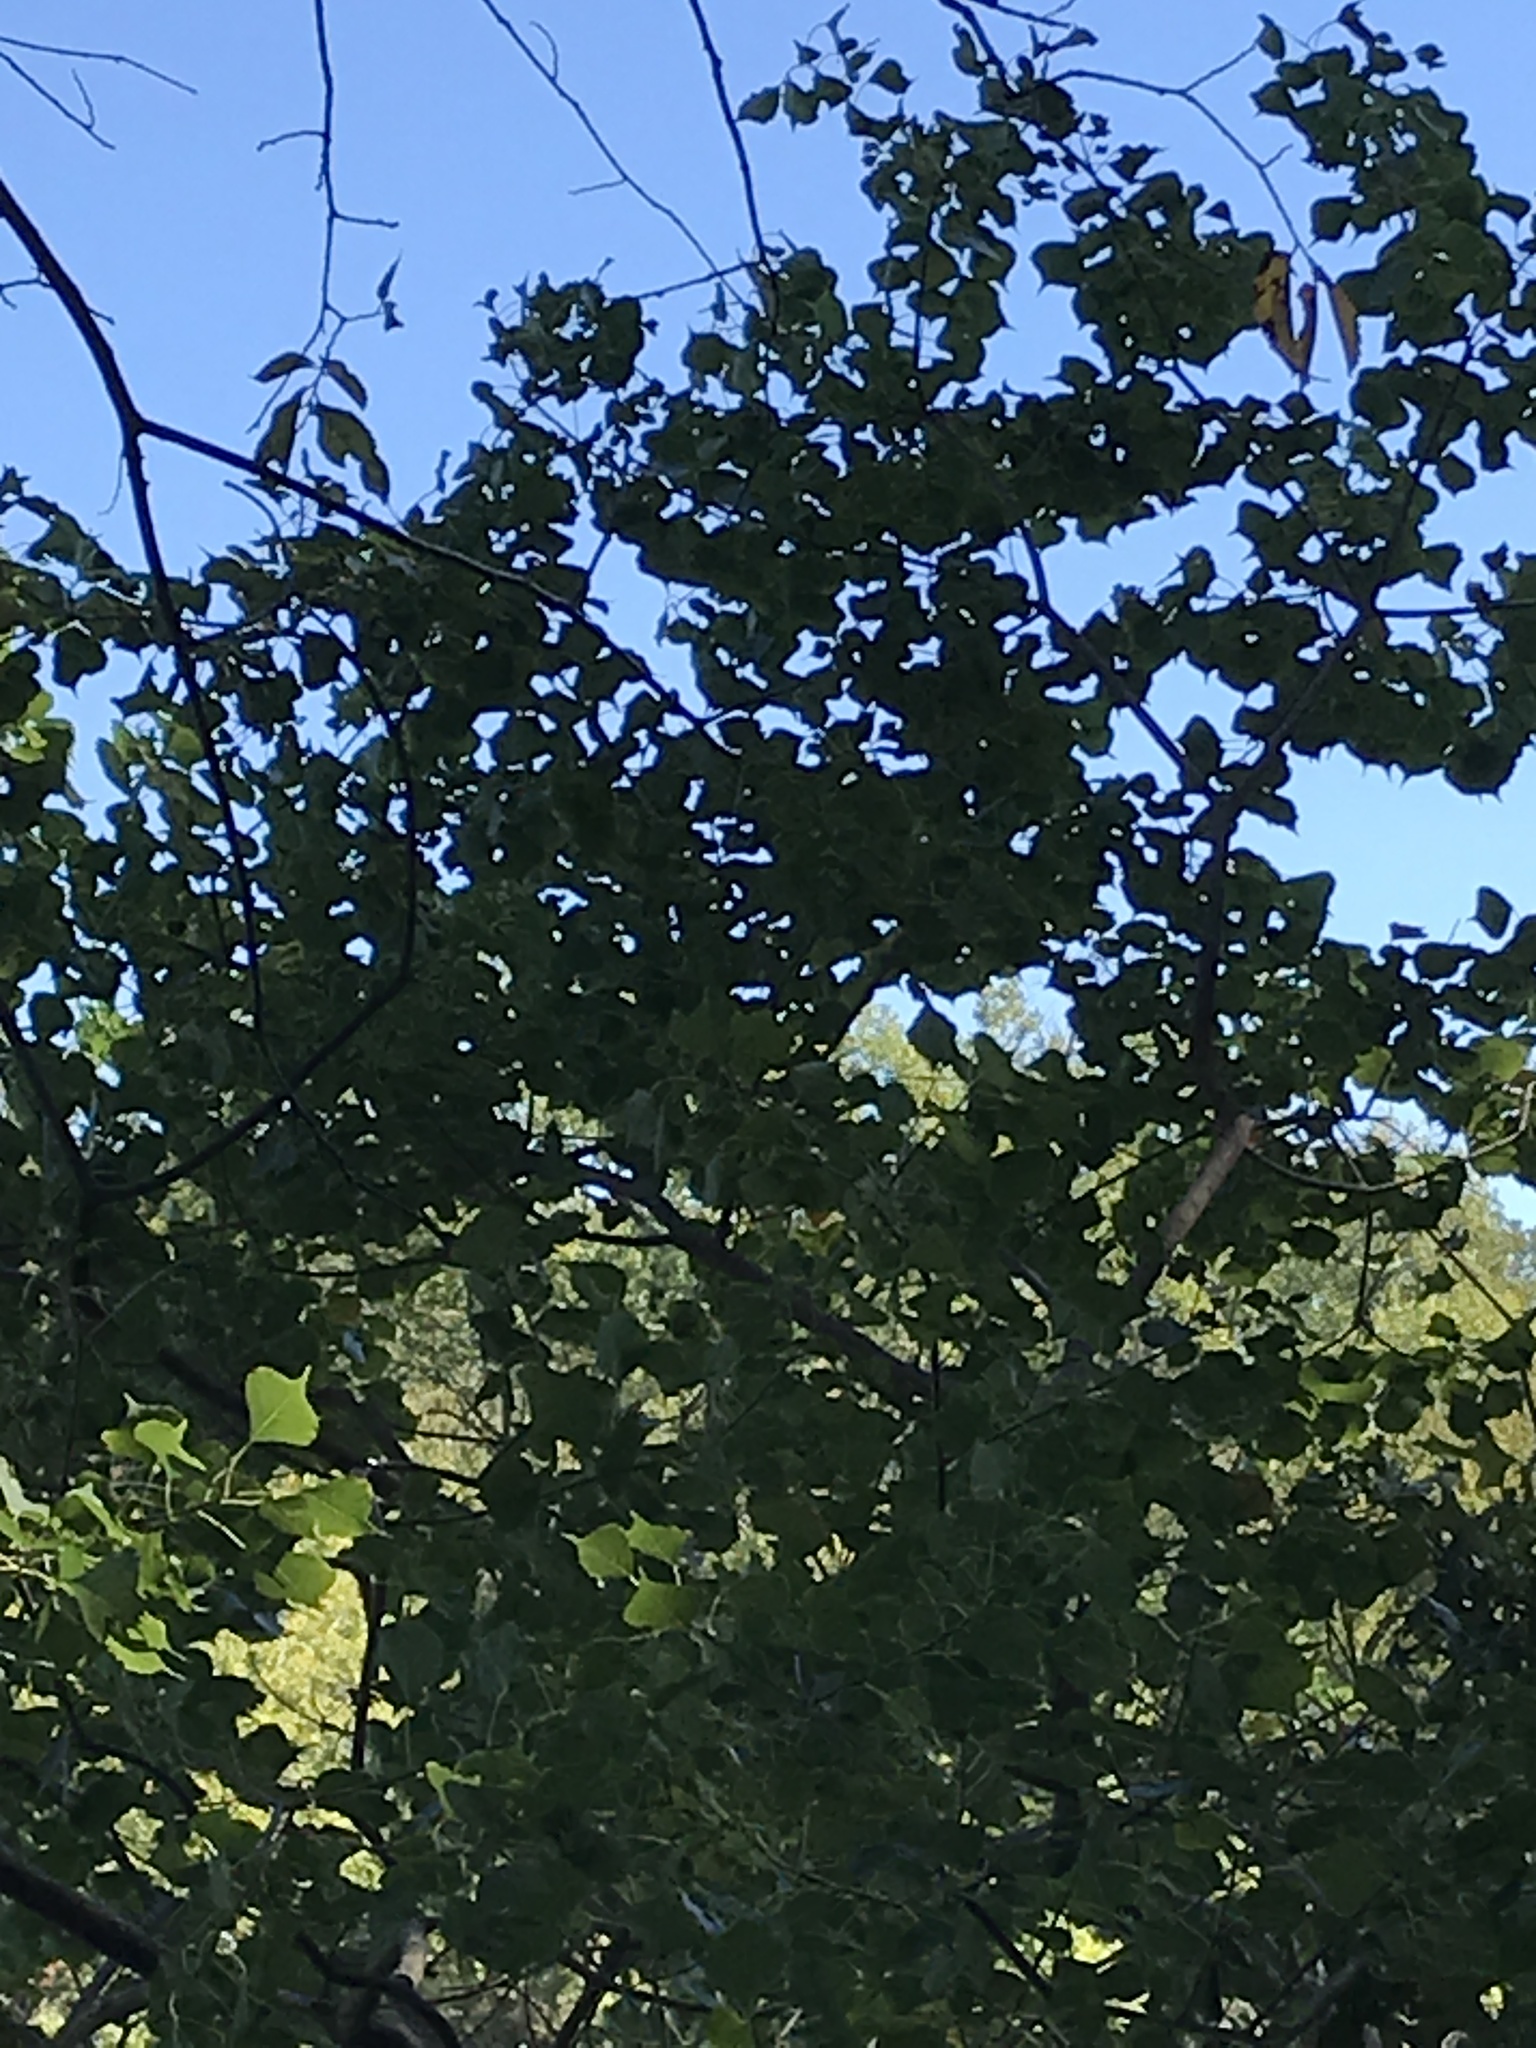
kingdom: Plantae
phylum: Tracheophyta
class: Magnoliopsida
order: Malpighiales
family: Euphorbiaceae
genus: Triadica
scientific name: Triadica sebifera
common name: Chinese tallow
